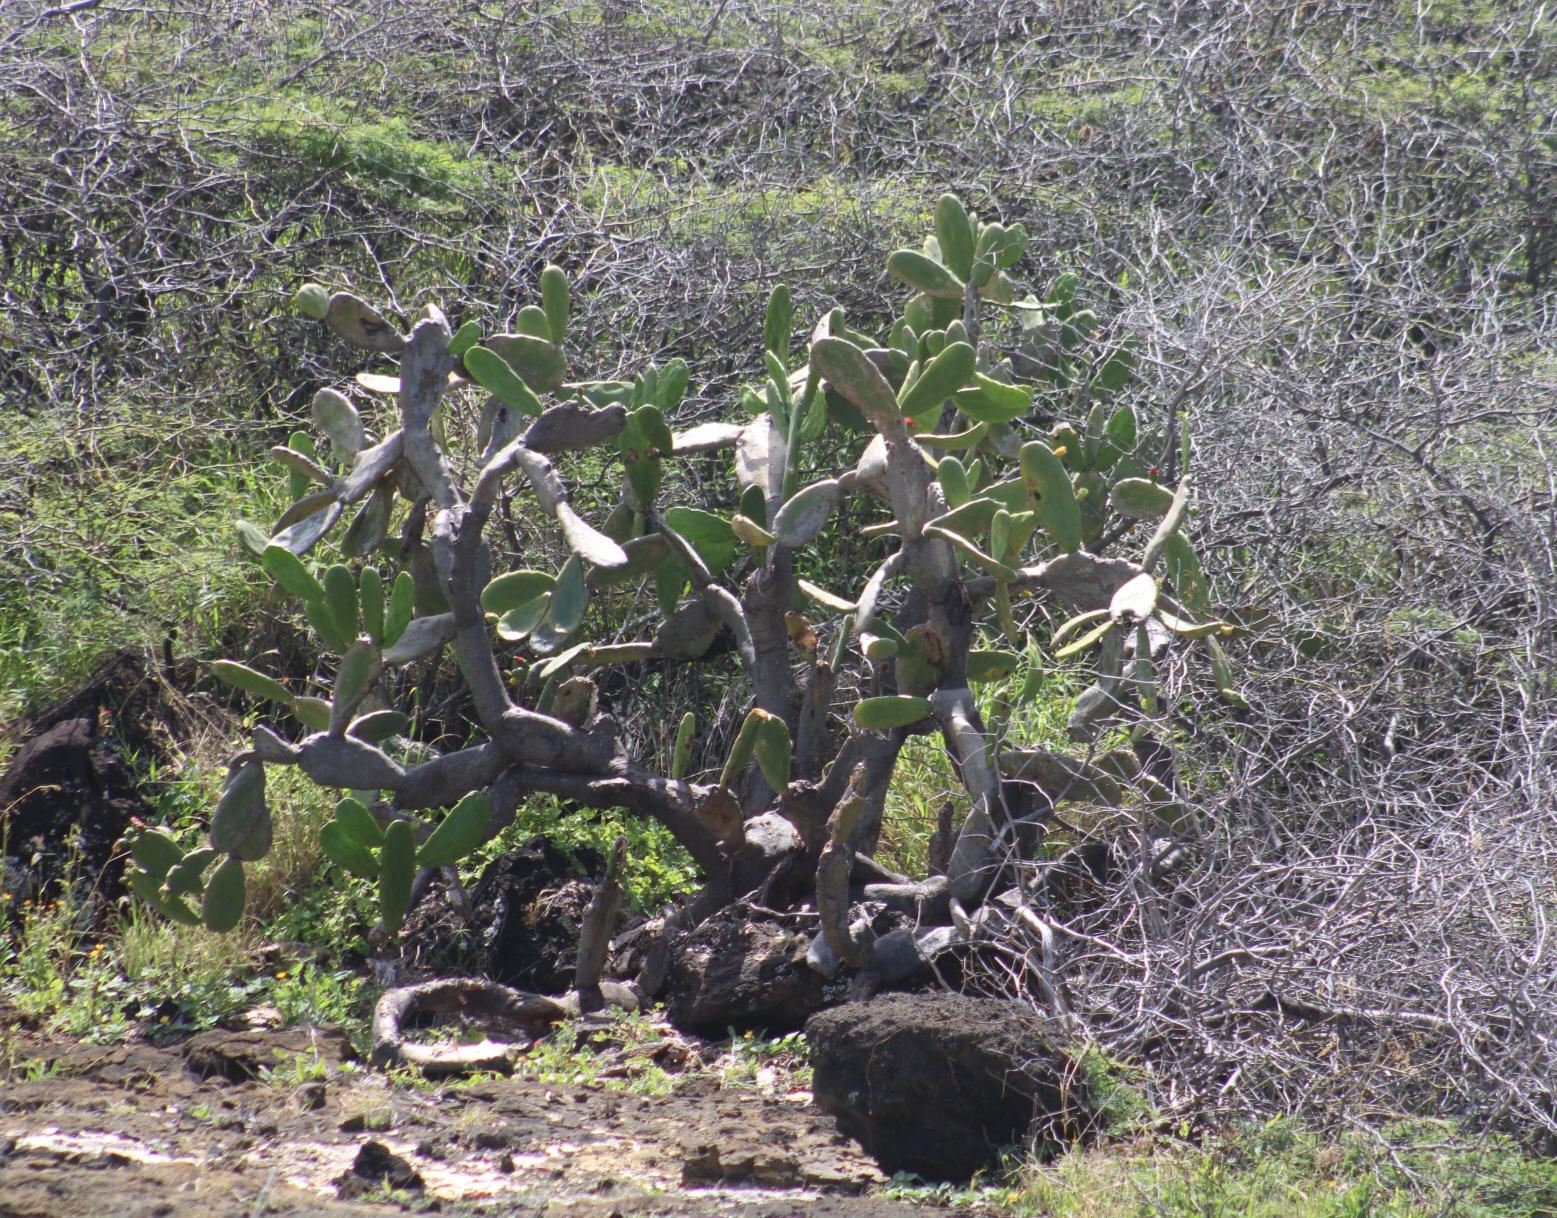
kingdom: Plantae
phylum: Tracheophyta
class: Magnoliopsida
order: Caryophyllales
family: Cactaceae
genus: Opuntia
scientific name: Opuntia ficus-indica
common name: Barbary fig
